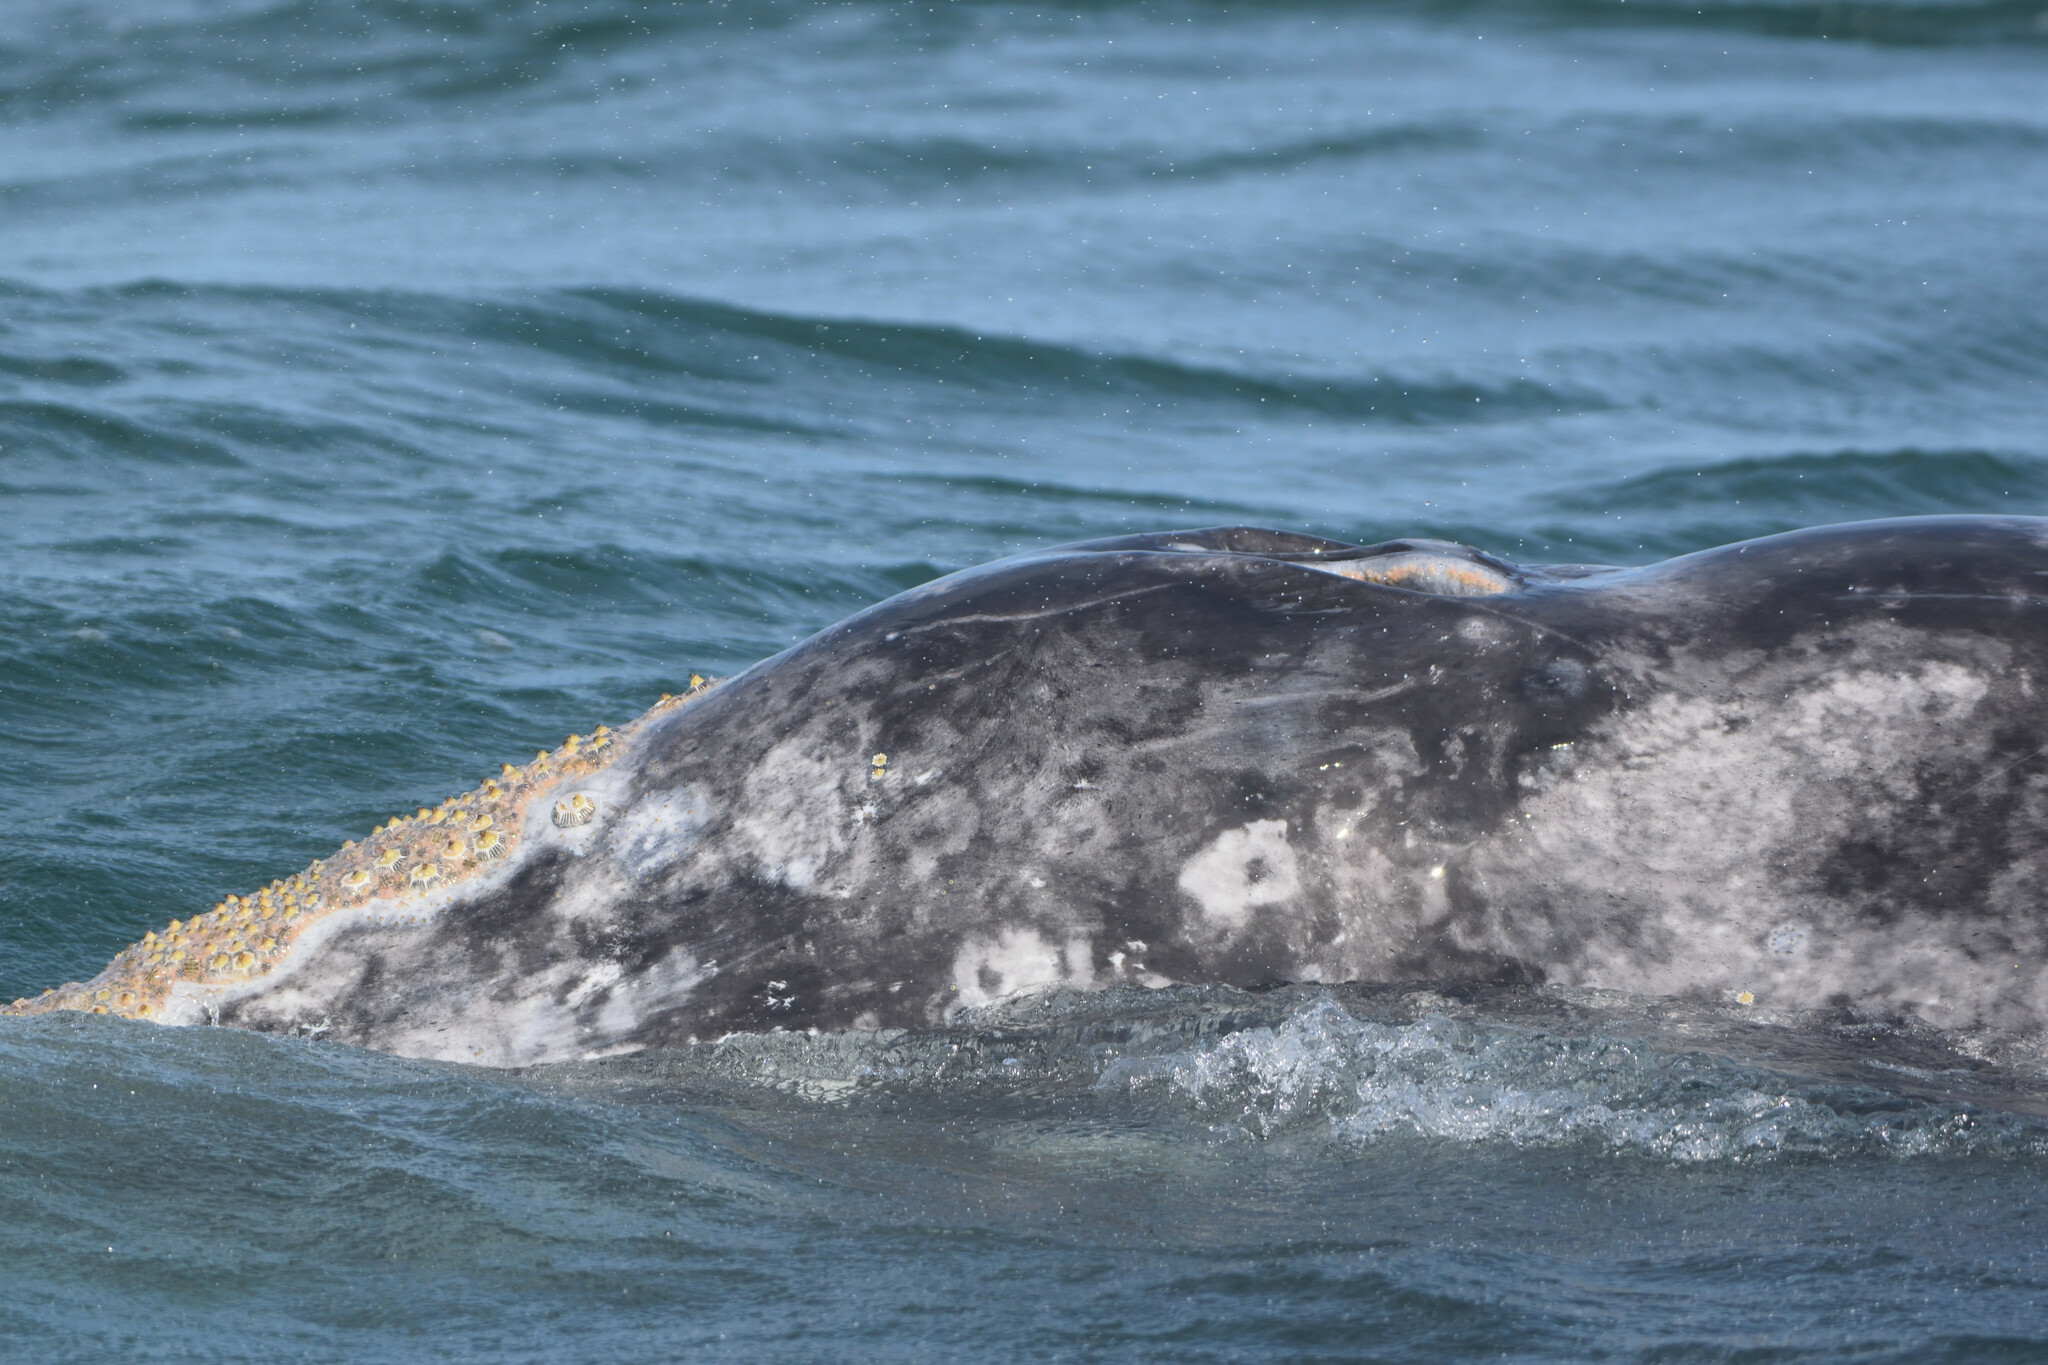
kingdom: Animalia
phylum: Chordata
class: Mammalia
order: Cetacea
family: Eschrichtiidae
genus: Eschrichtius
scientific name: Eschrichtius robustus
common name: Gray whale
